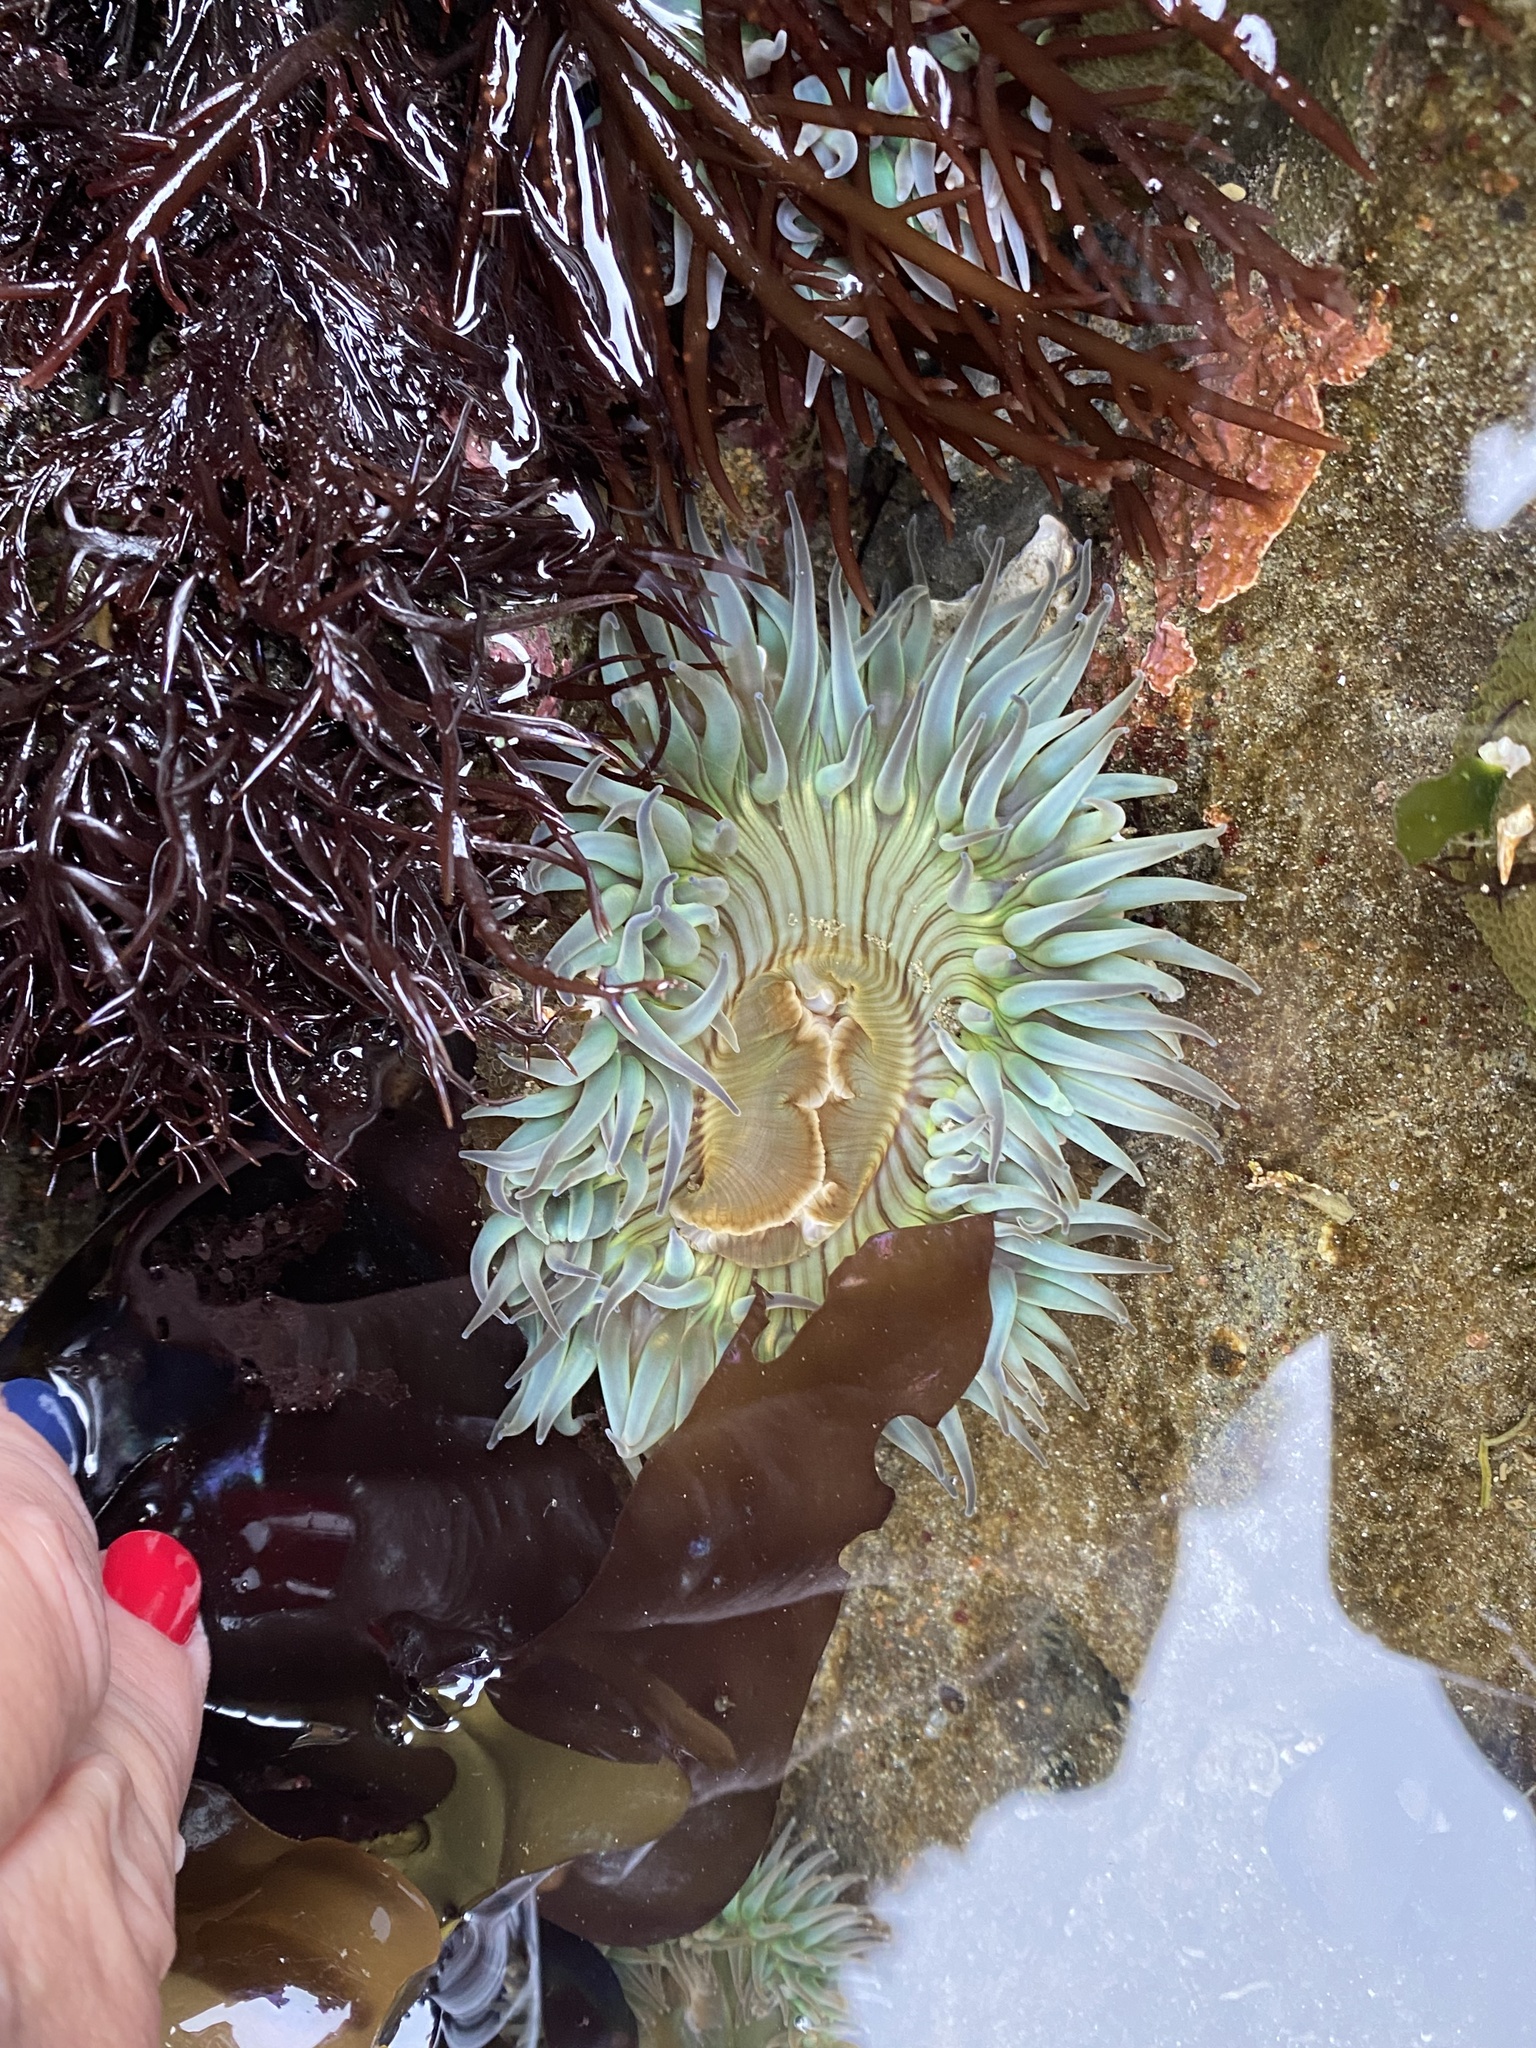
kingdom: Animalia
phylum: Cnidaria
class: Anthozoa
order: Actiniaria
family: Actiniidae
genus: Anthopleura
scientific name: Anthopleura sola
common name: Sun anemone
